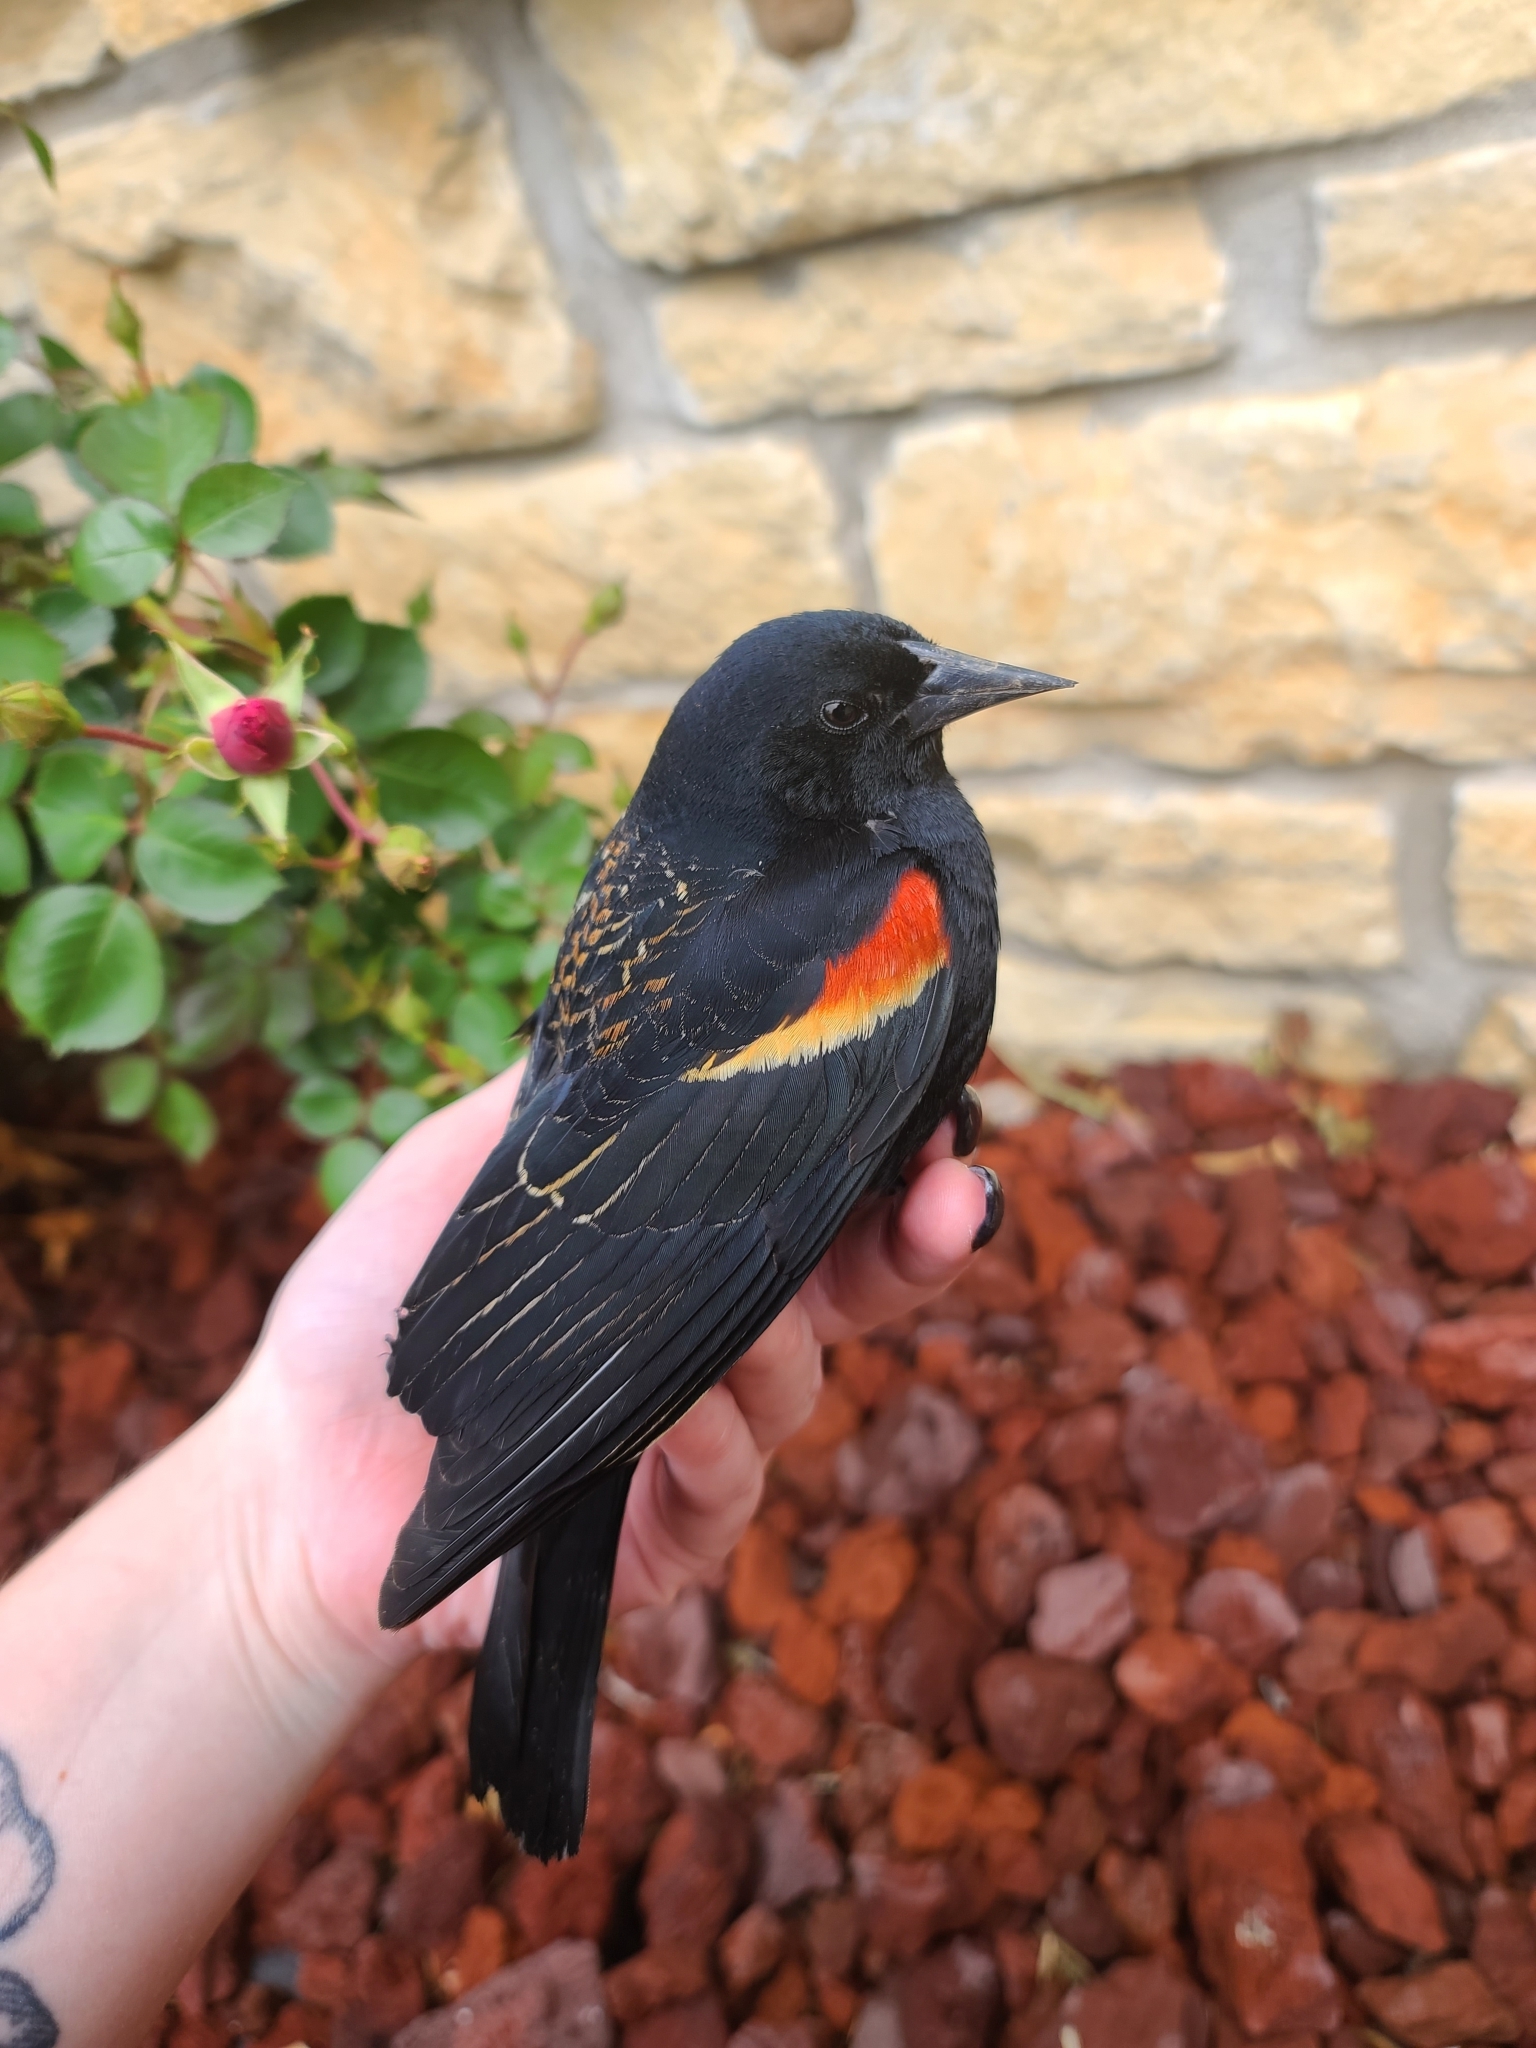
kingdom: Animalia
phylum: Chordata
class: Aves
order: Passeriformes
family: Icteridae
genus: Agelaius
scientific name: Agelaius phoeniceus
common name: Red-winged blackbird
